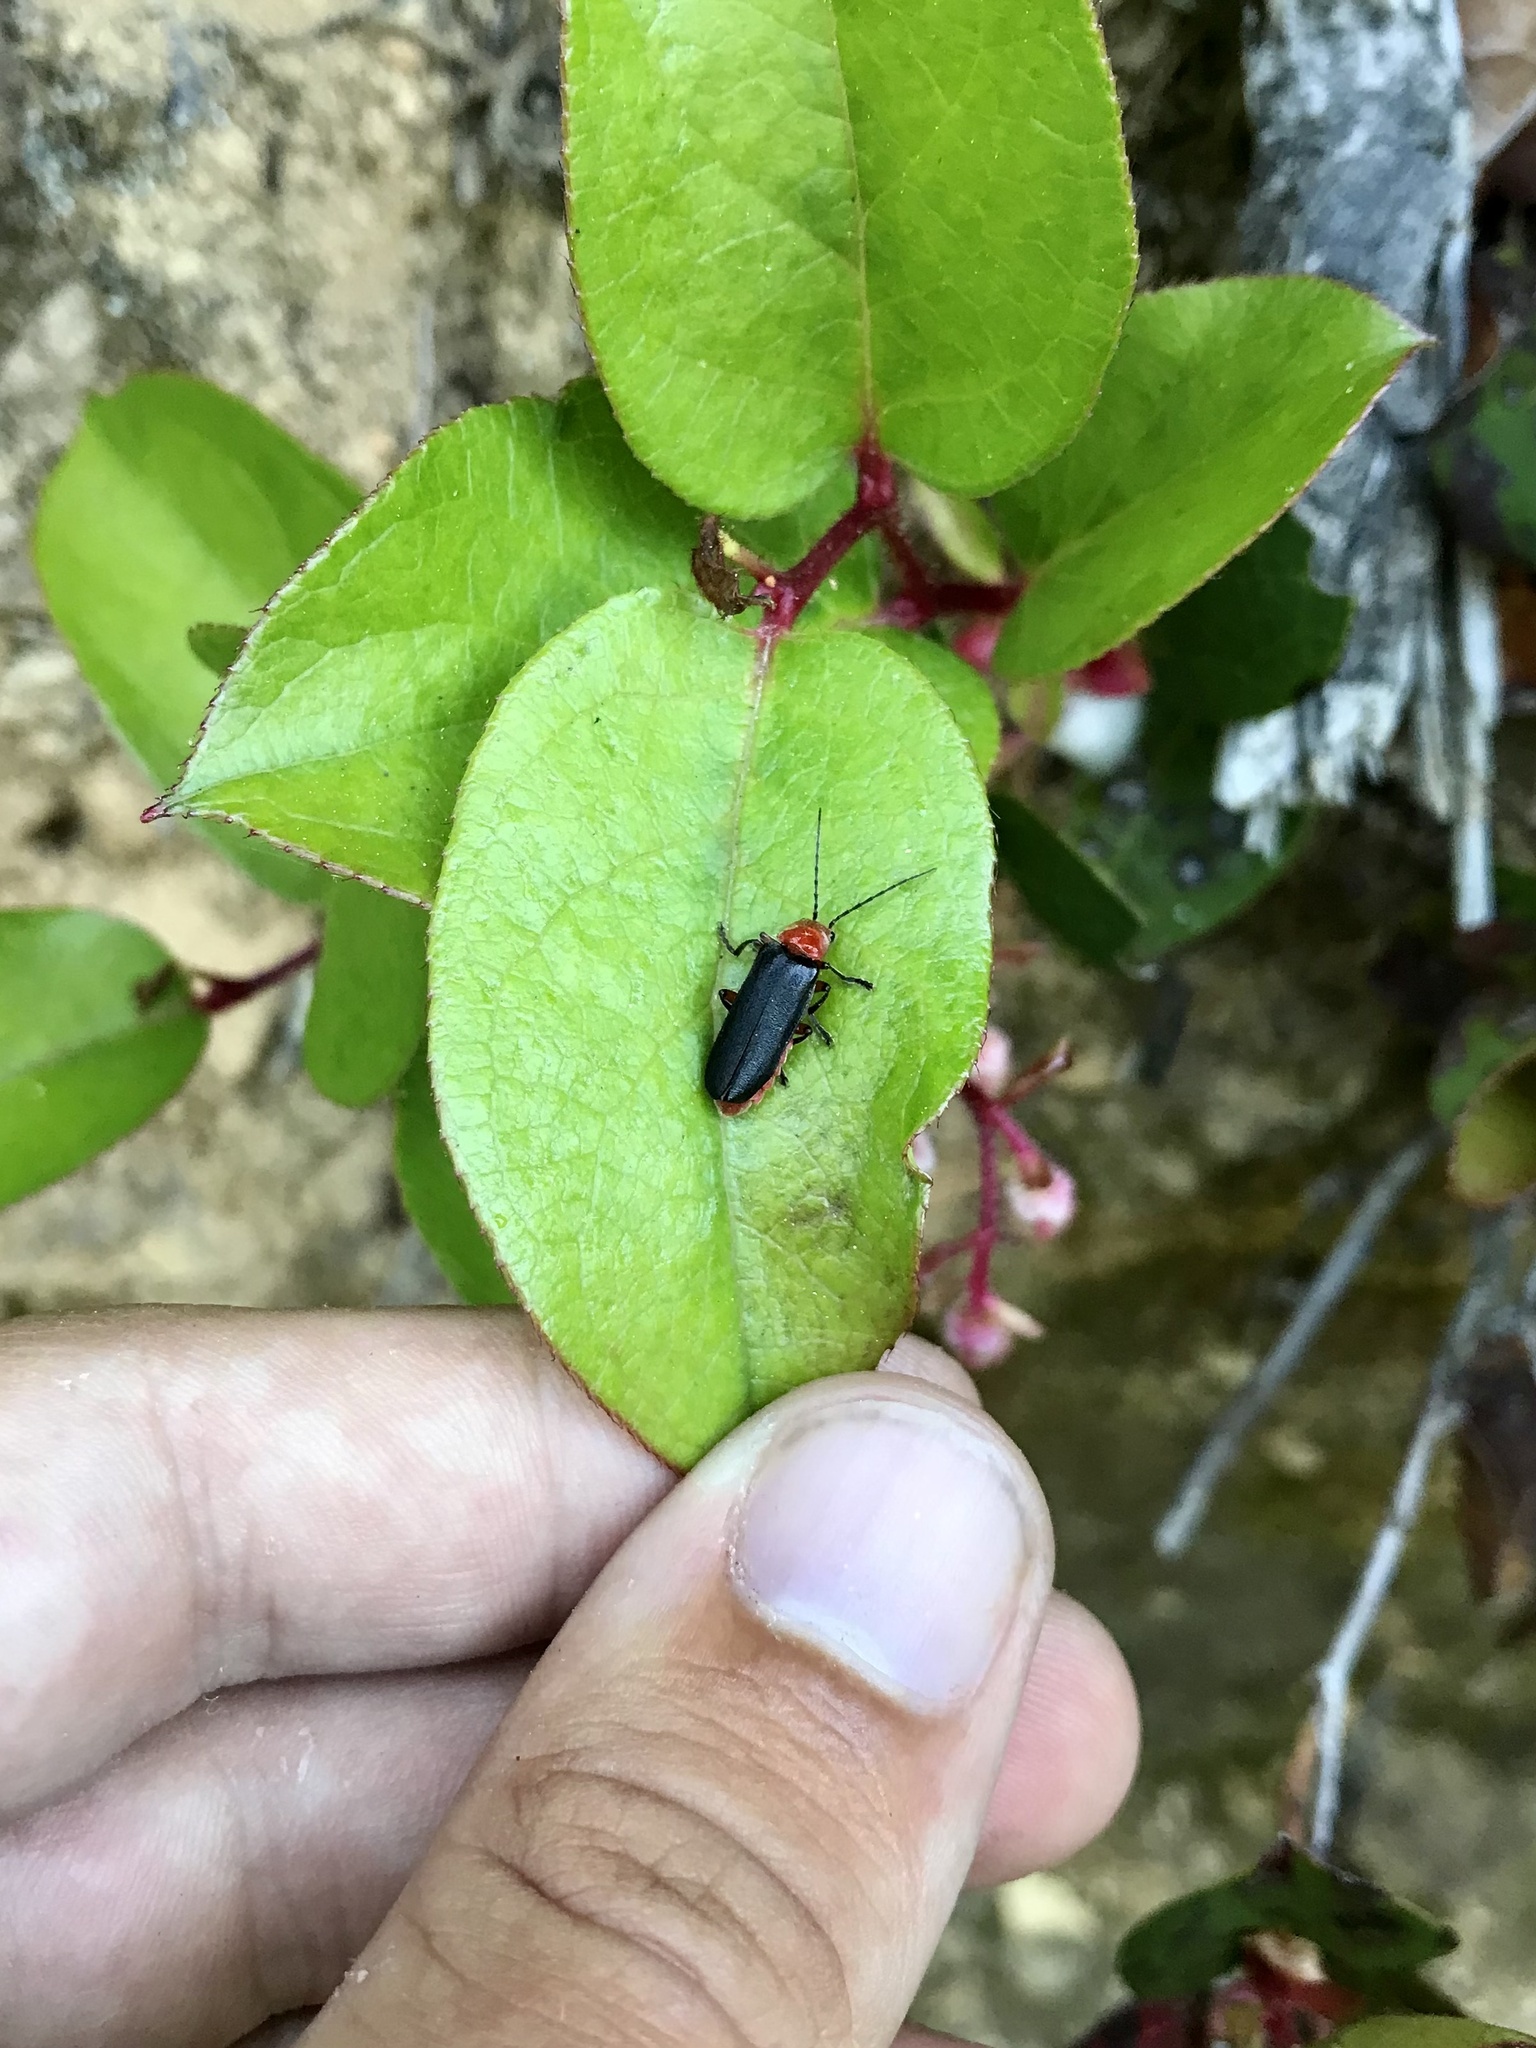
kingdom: Animalia
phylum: Arthropoda
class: Insecta
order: Coleoptera
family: Cantharidae
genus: Podabrus
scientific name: Podabrus pruinosus
